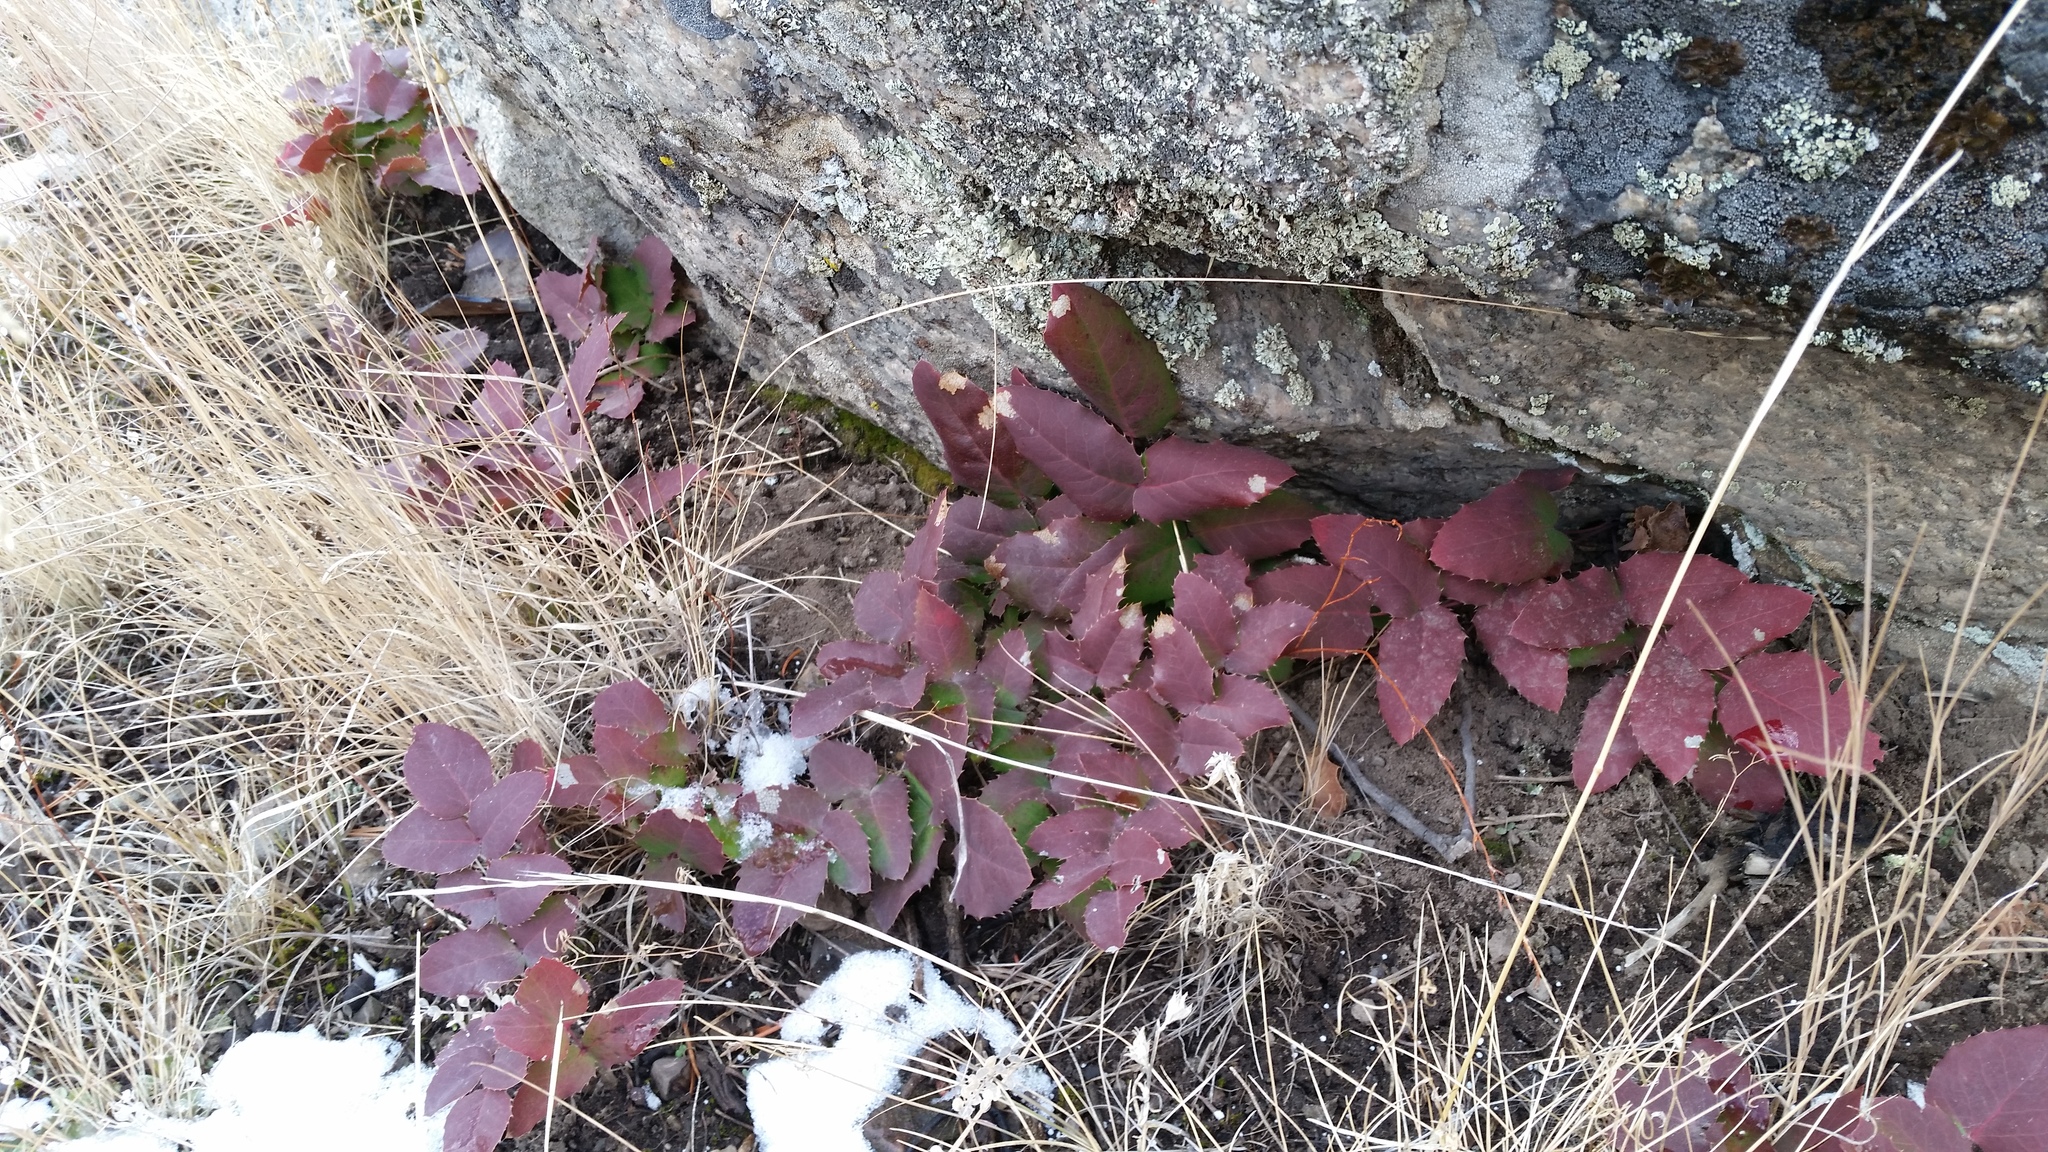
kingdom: Plantae
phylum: Tracheophyta
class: Magnoliopsida
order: Ranunculales
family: Berberidaceae
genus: Mahonia
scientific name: Mahonia repens
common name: Creeping oregon-grape
